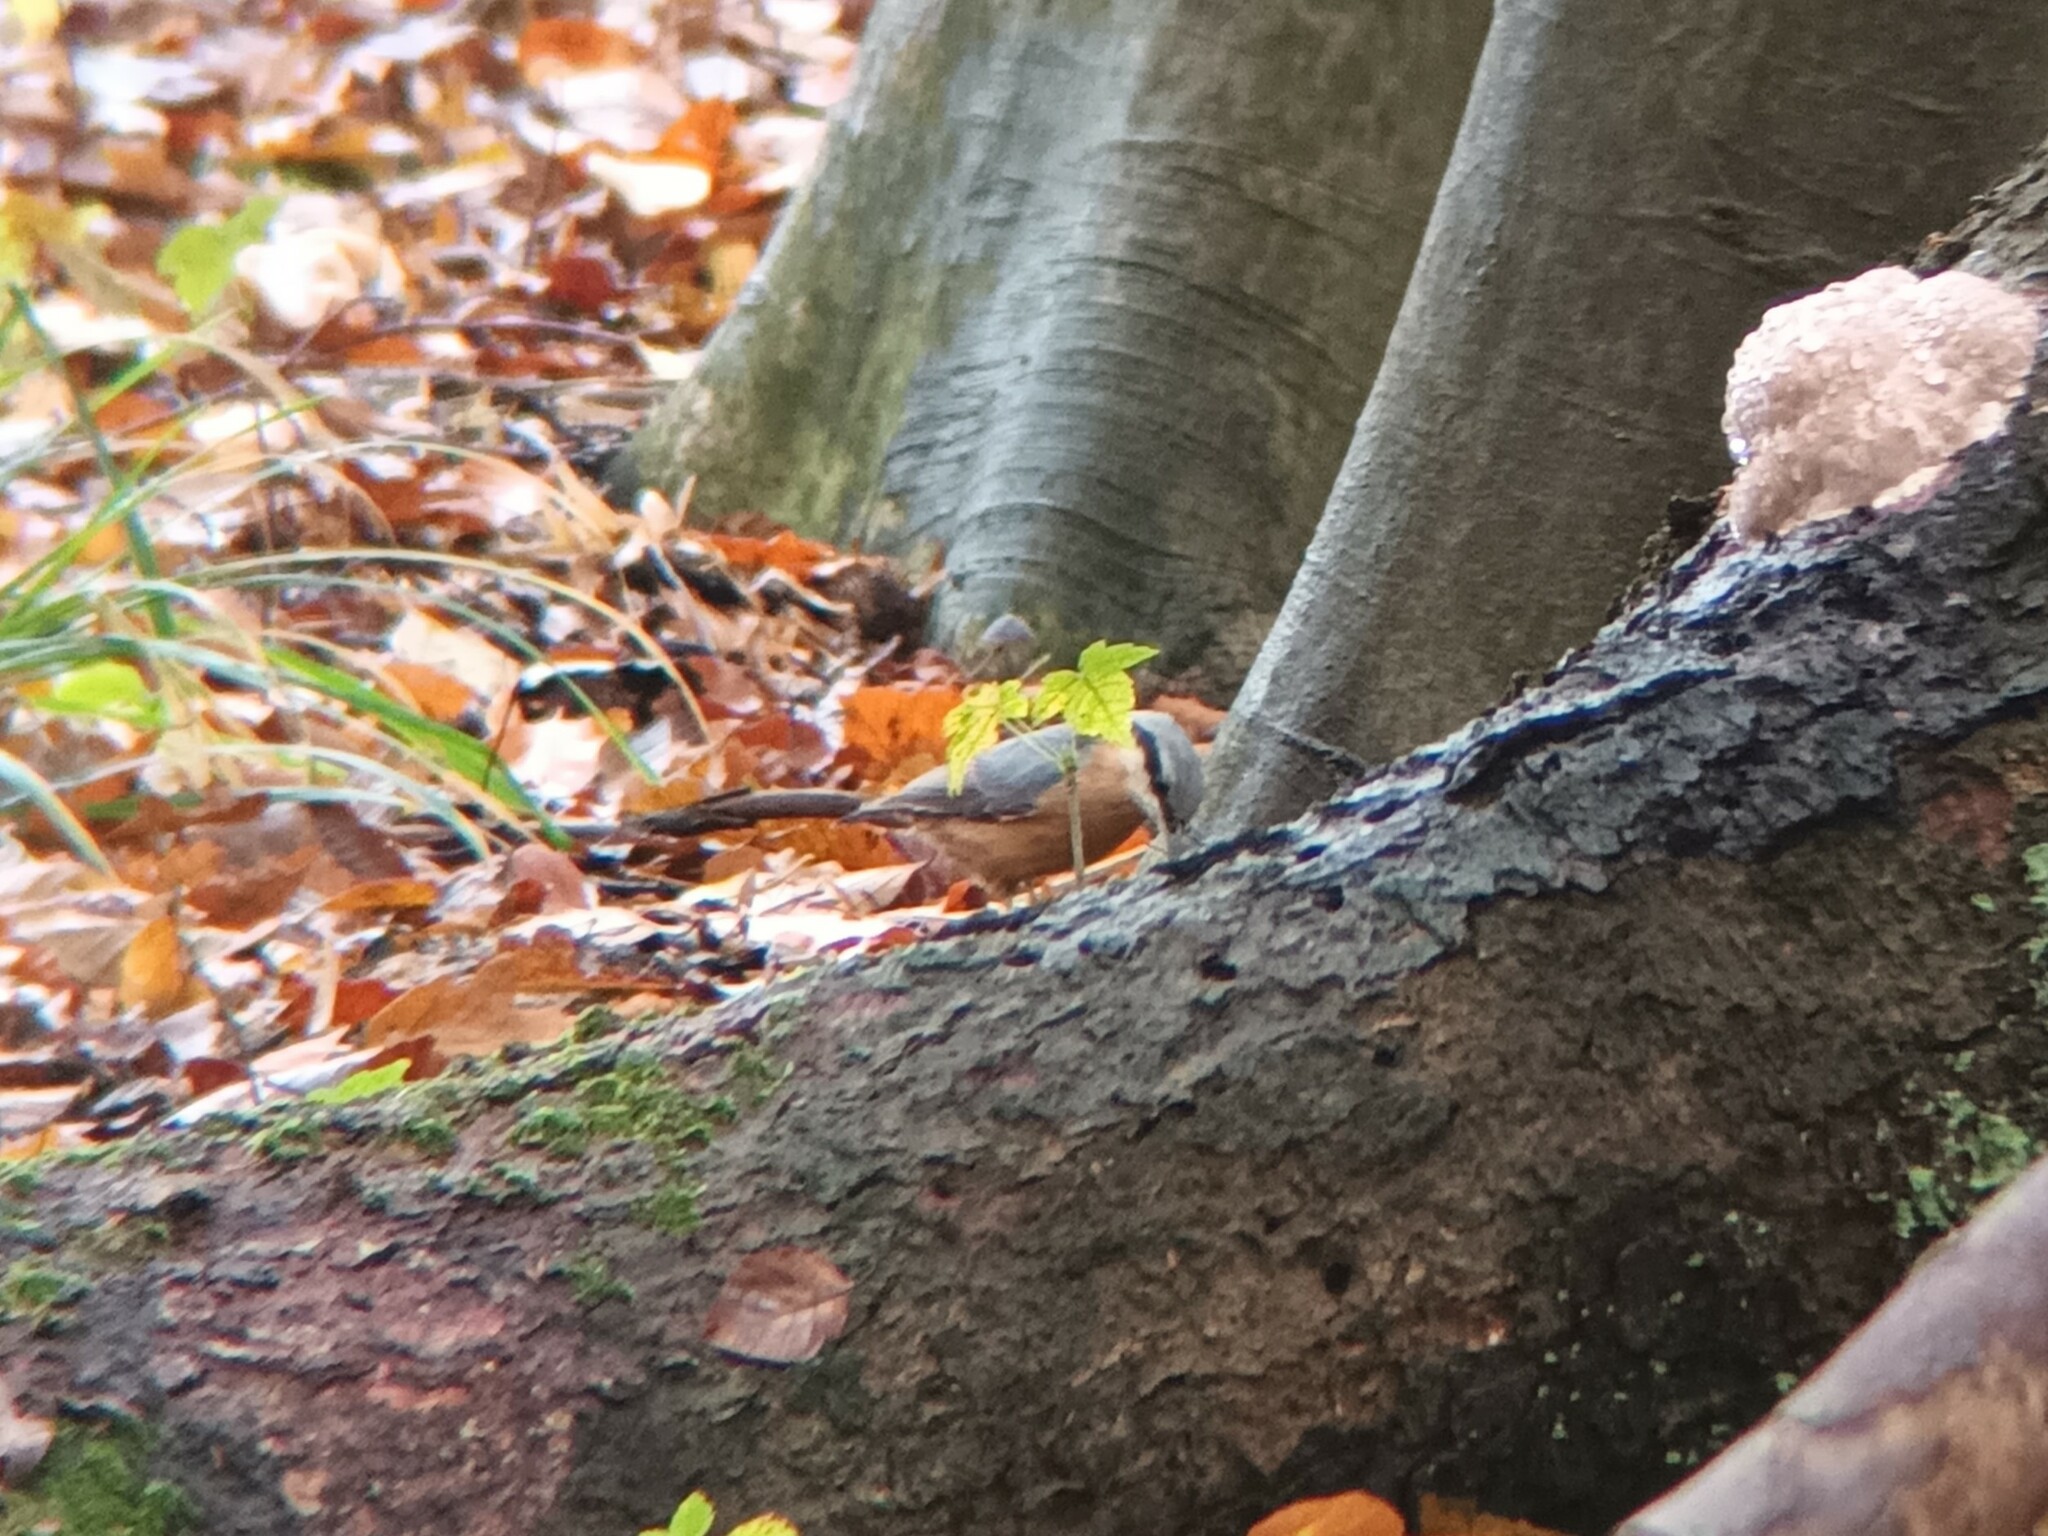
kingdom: Animalia
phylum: Chordata
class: Aves
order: Passeriformes
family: Sittidae
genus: Sitta
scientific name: Sitta europaea
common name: Eurasian nuthatch
